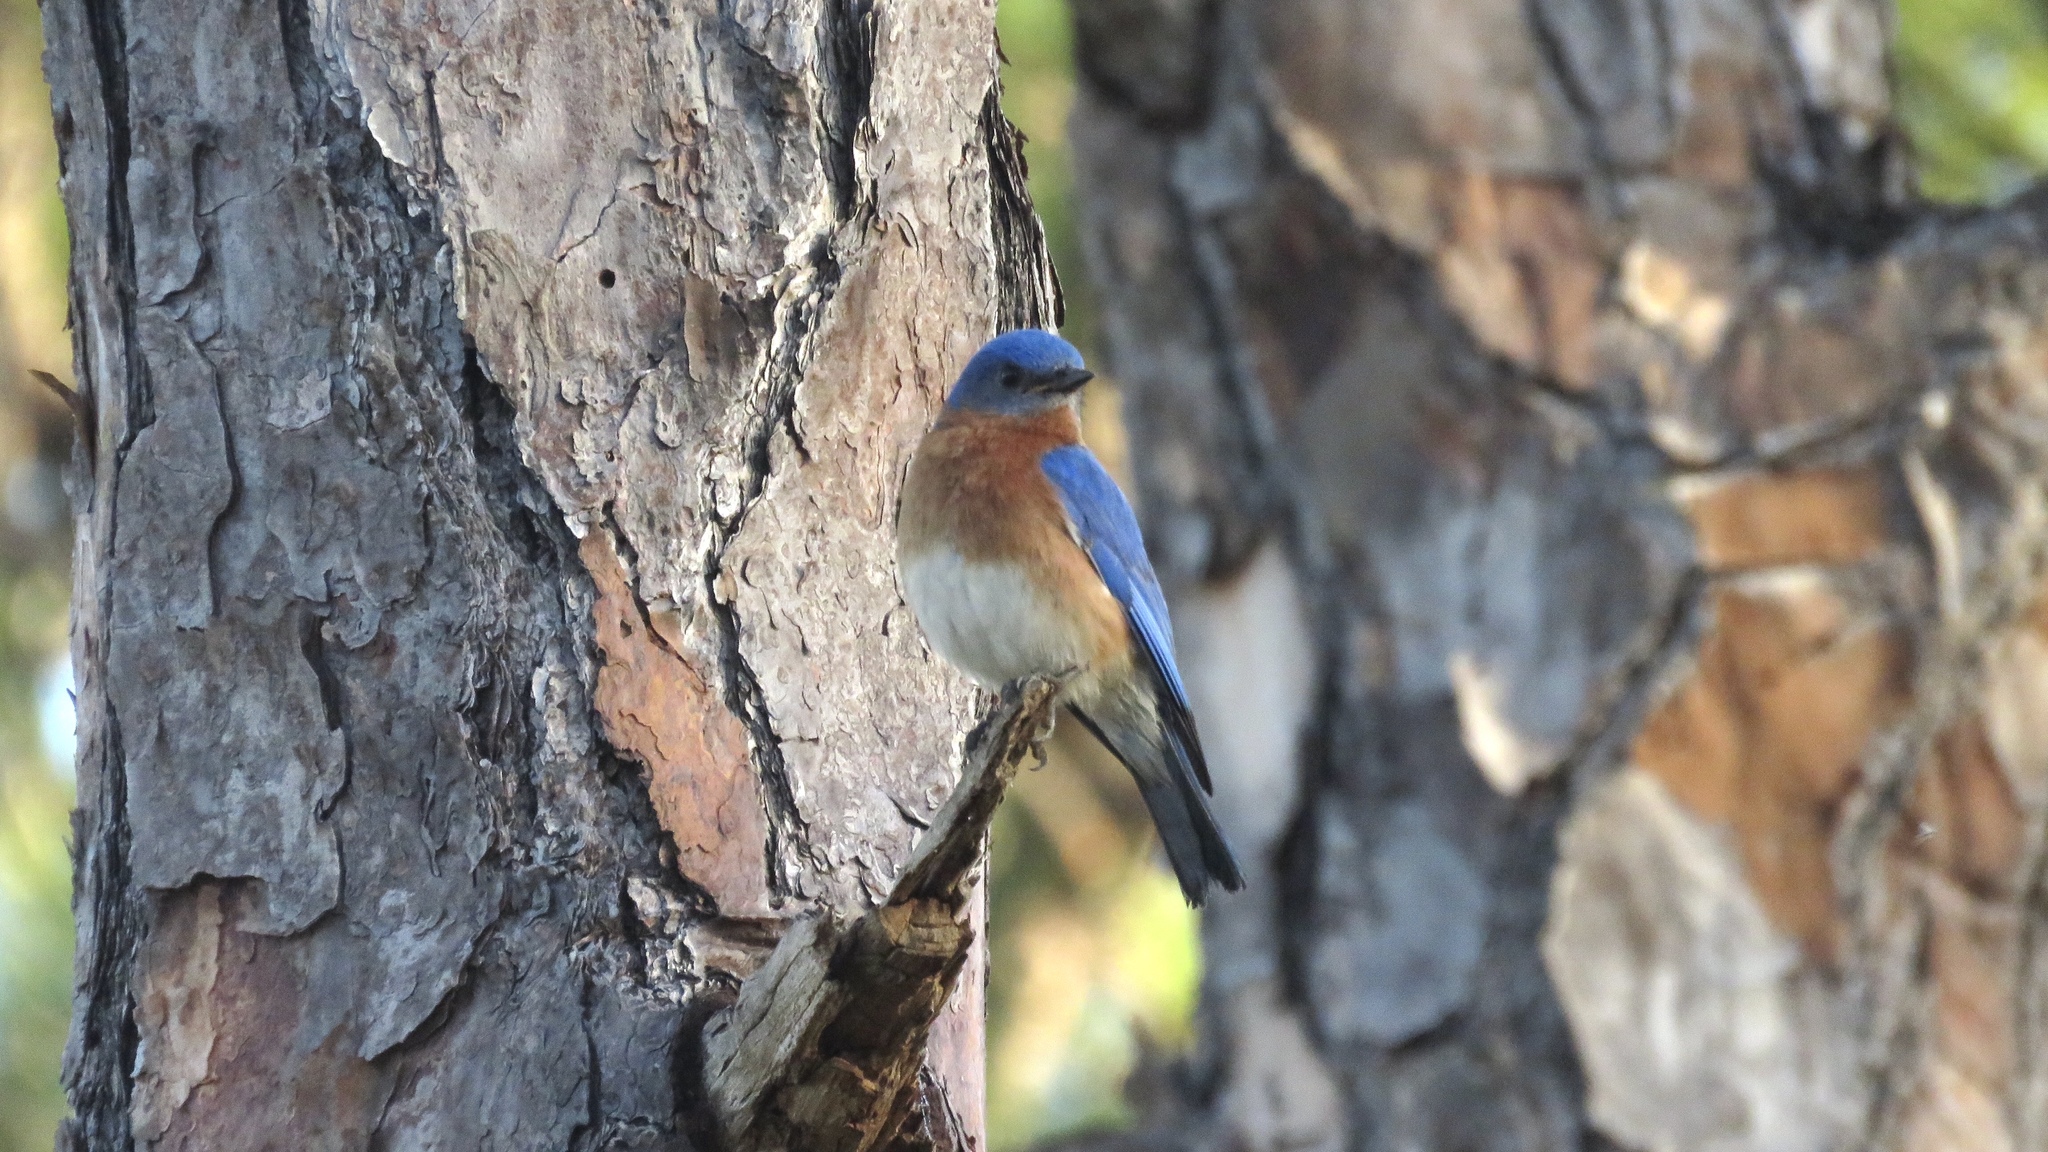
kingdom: Animalia
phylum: Chordata
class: Aves
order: Passeriformes
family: Turdidae
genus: Sialia
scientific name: Sialia sialis
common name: Eastern bluebird
